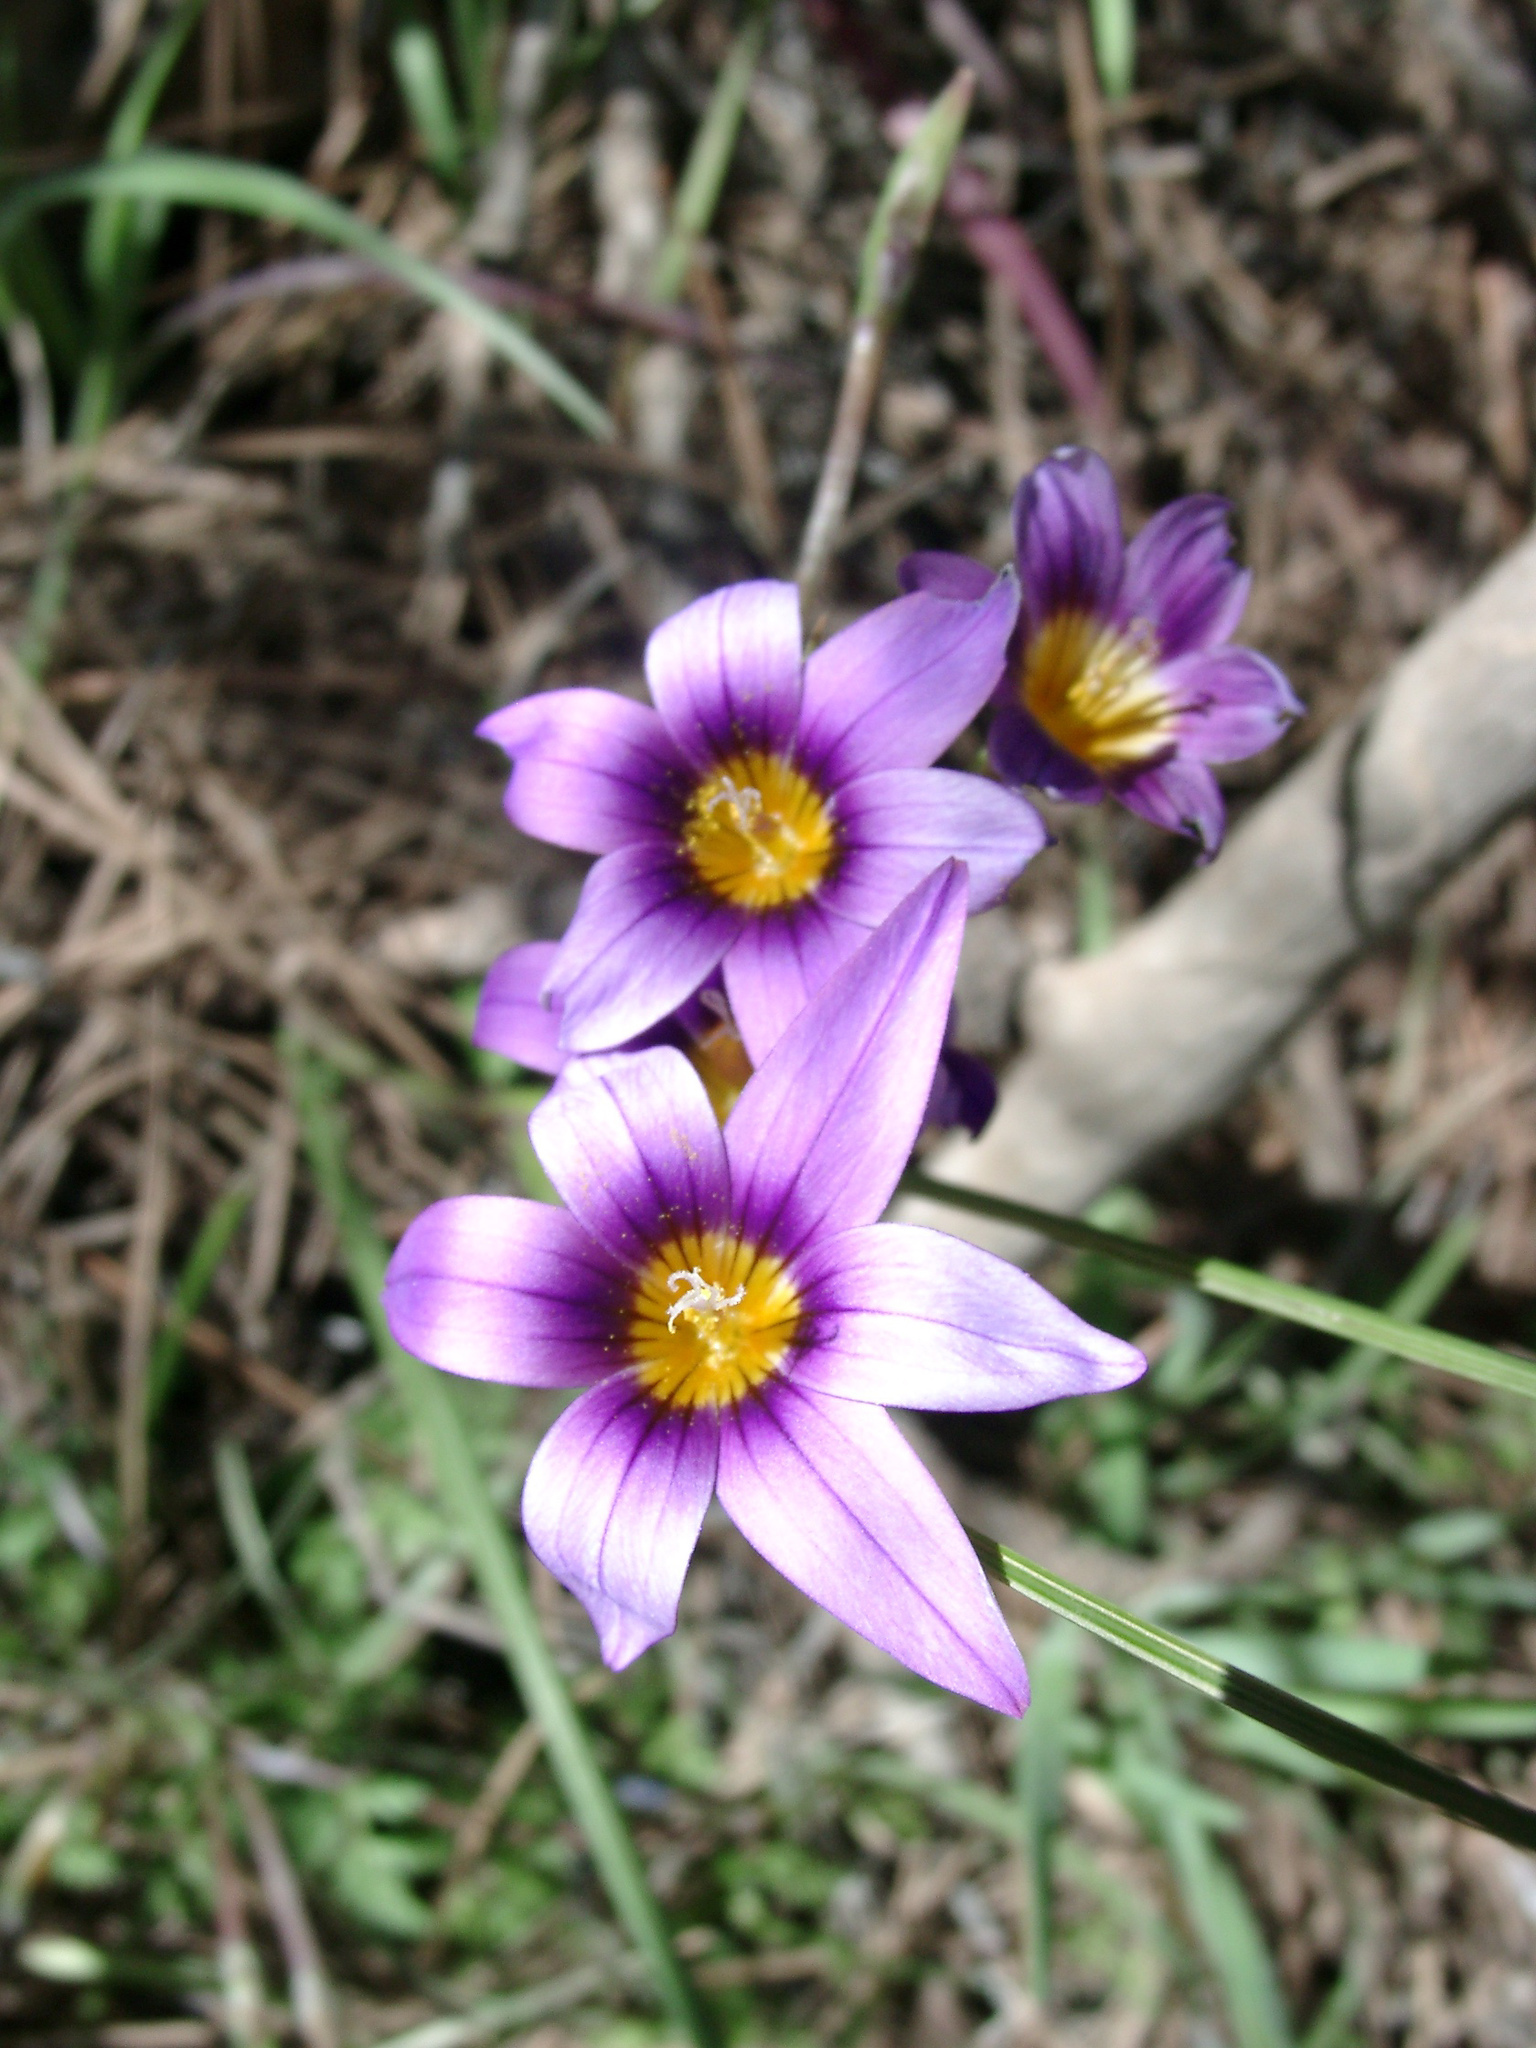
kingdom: Plantae
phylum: Tracheophyta
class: Liliopsida
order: Asparagales
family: Iridaceae
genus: Romulea
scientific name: Romulea columnae
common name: Sand-crocus
